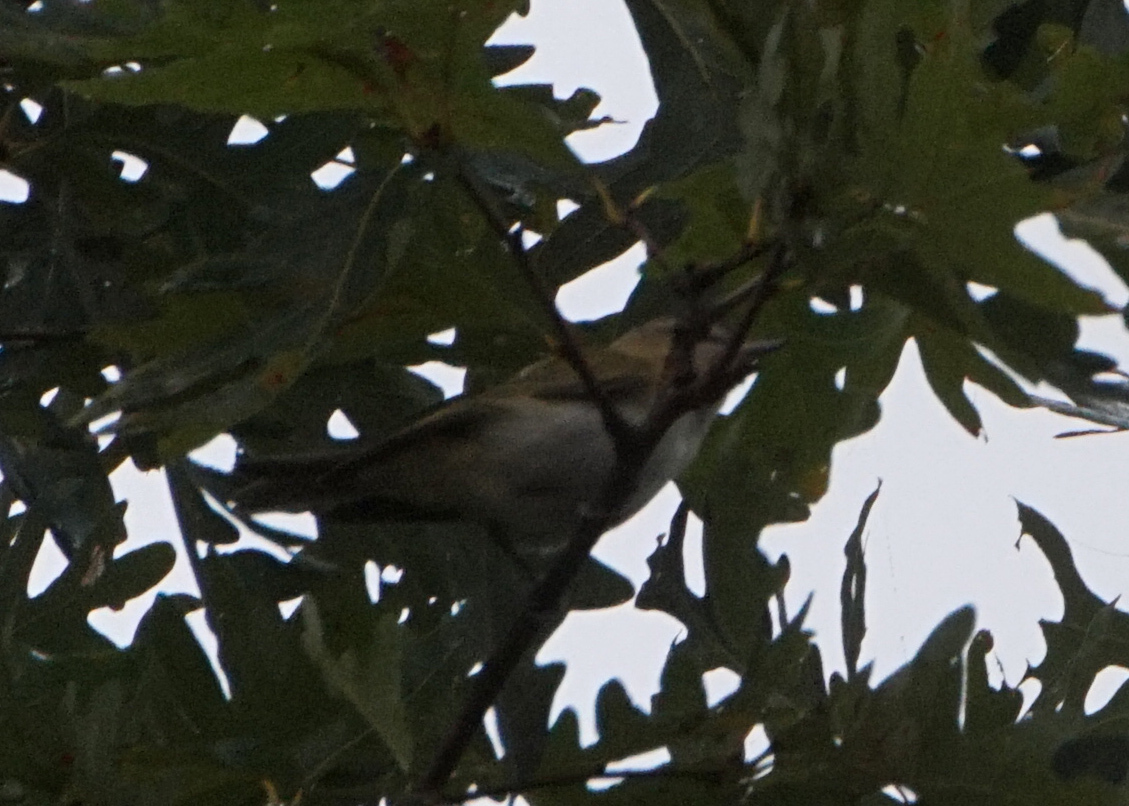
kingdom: Animalia
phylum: Chordata
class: Aves
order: Passeriformes
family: Vireonidae
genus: Vireo
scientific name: Vireo olivaceus
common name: Red-eyed vireo
